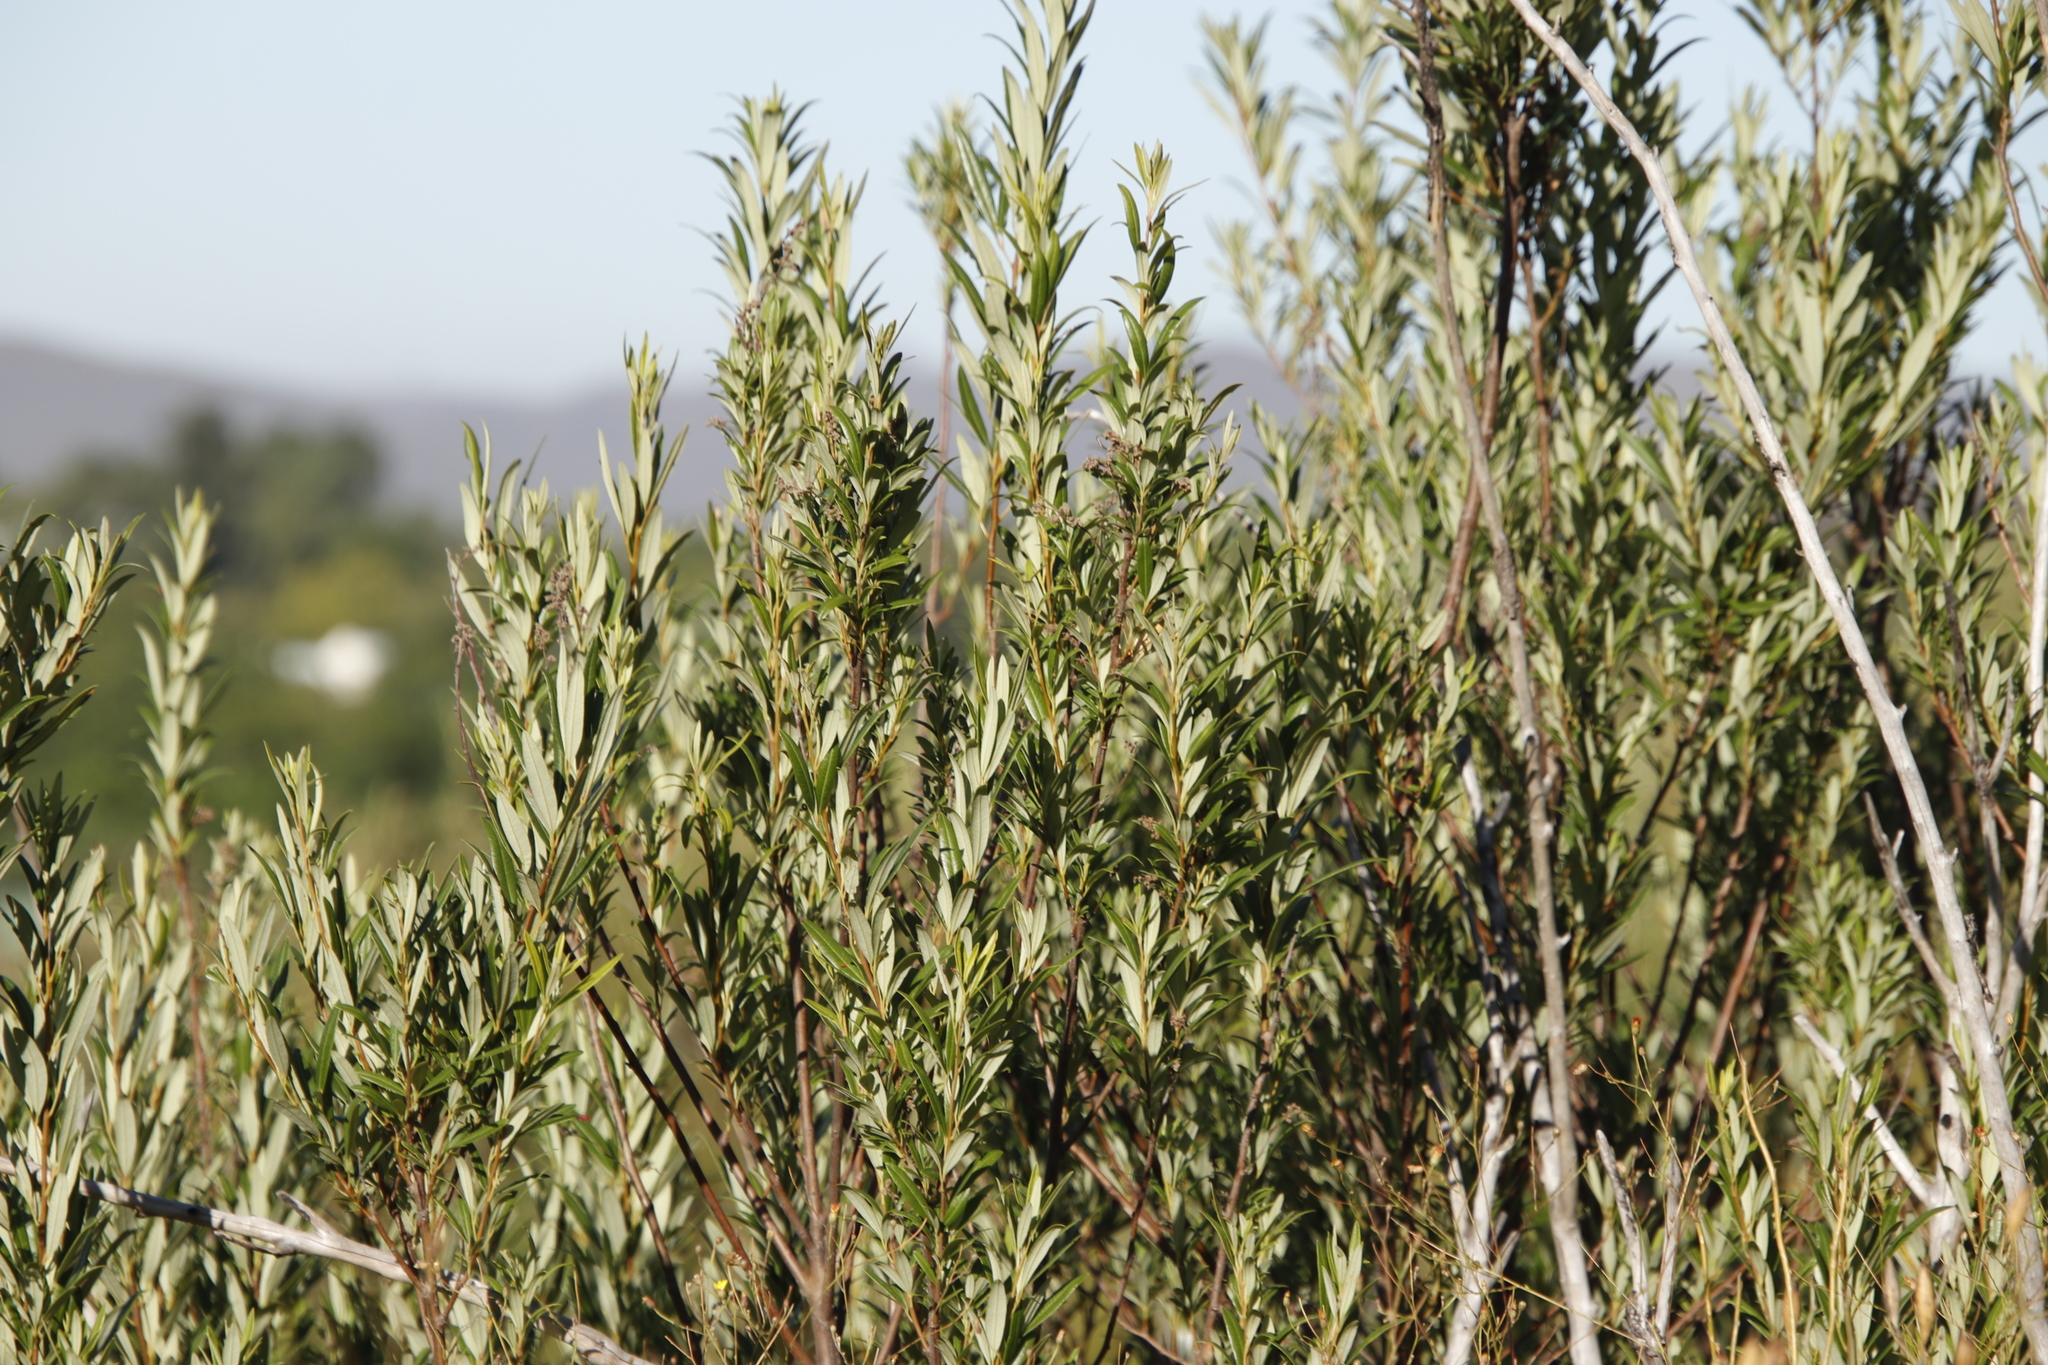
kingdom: Plantae
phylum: Tracheophyta
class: Magnoliopsida
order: Sapindales
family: Anacardiaceae
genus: Searsia
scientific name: Searsia angustifolia
